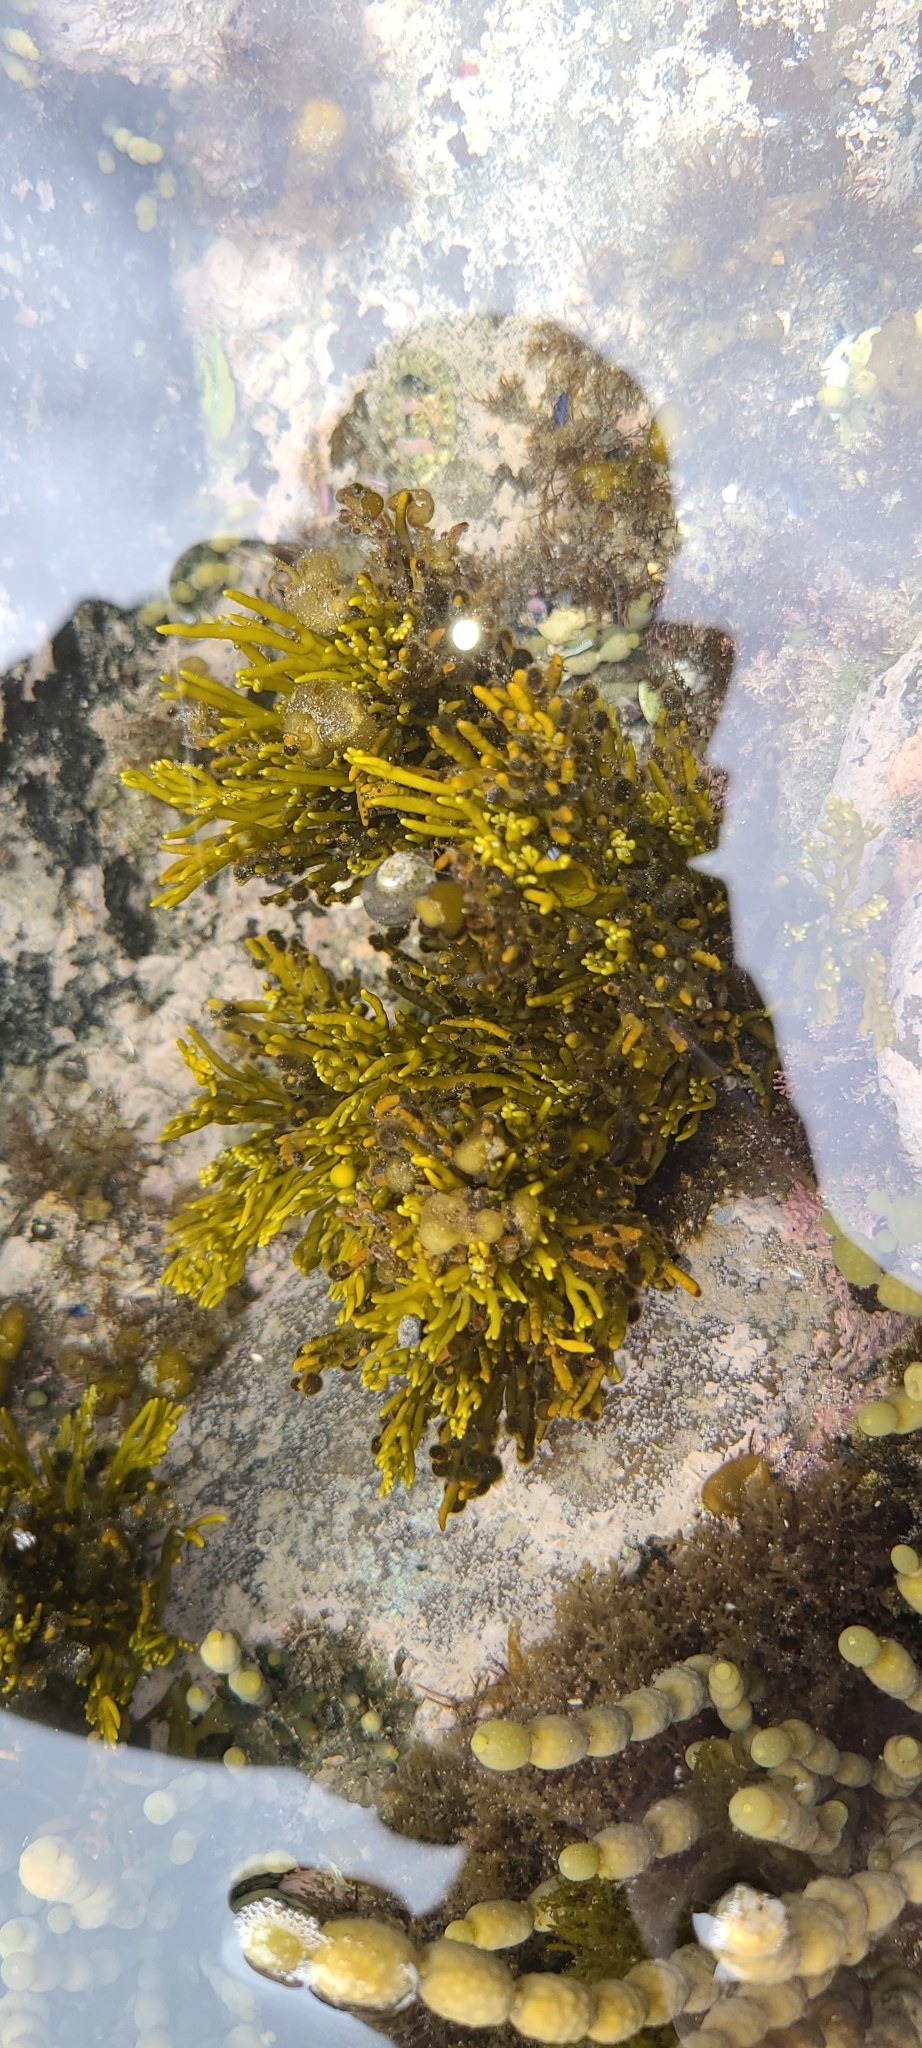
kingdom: Chromista
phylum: Ochrophyta
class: Phaeophyceae
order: Fucales
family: Sargassaceae
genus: Cystophora
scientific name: Cystophora scalaris
